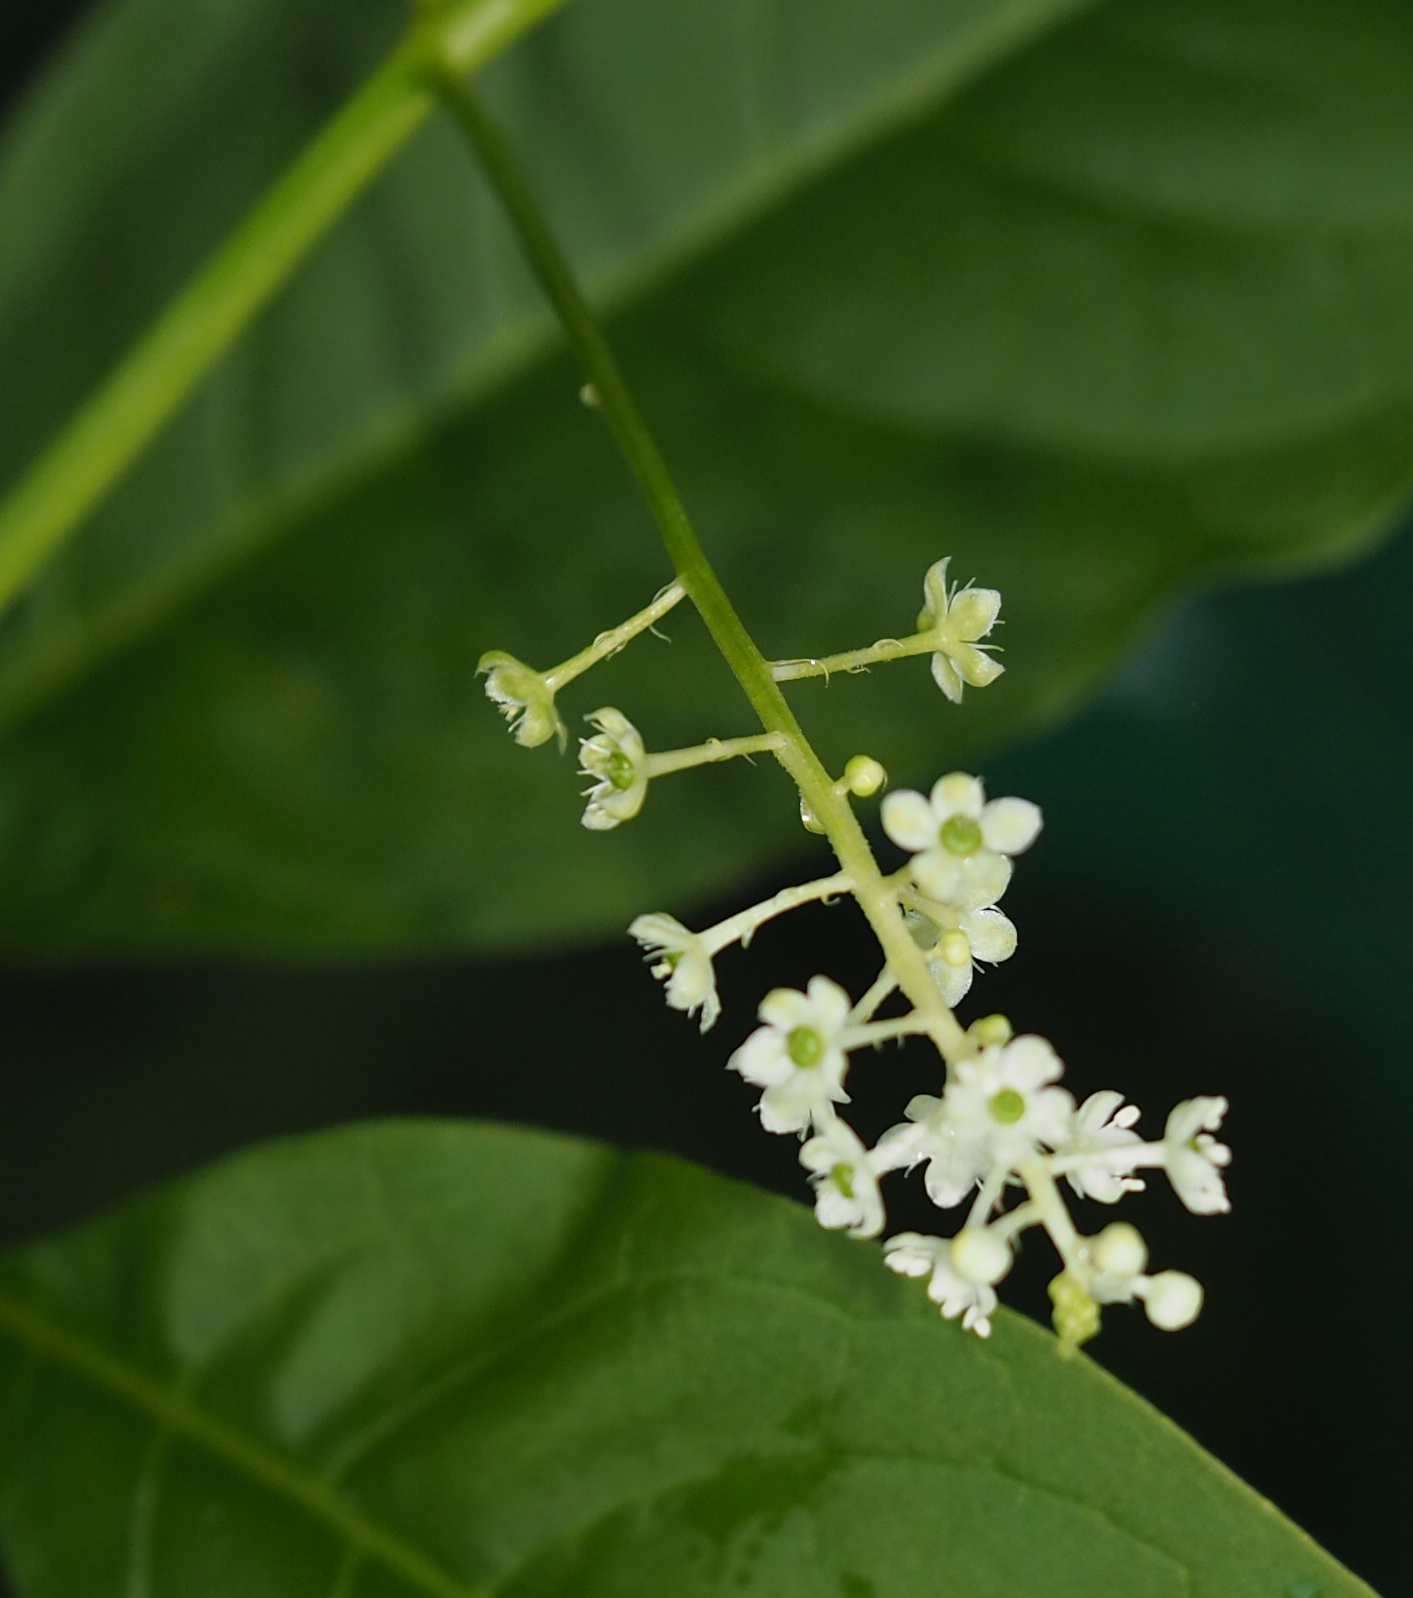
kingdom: Plantae
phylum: Tracheophyta
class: Magnoliopsida
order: Caryophyllales
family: Phytolaccaceae
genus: Phytolacca
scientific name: Phytolacca americana
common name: American pokeweed
